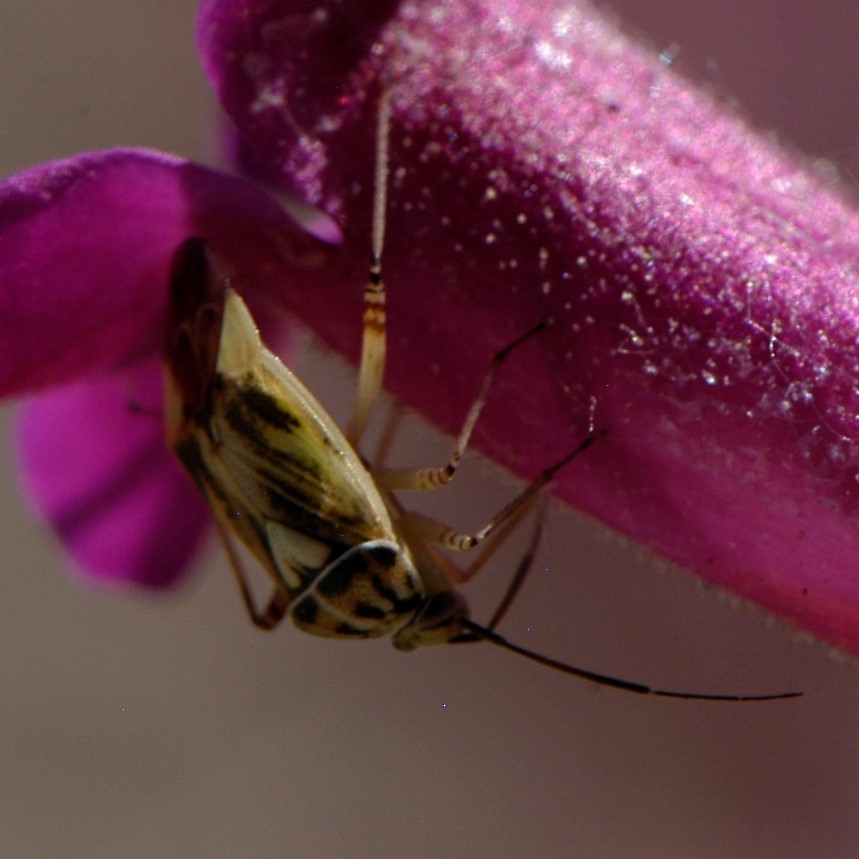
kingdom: Animalia
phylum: Arthropoda
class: Insecta
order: Hemiptera
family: Miridae
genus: Lygus
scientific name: Lygus atriflavus
